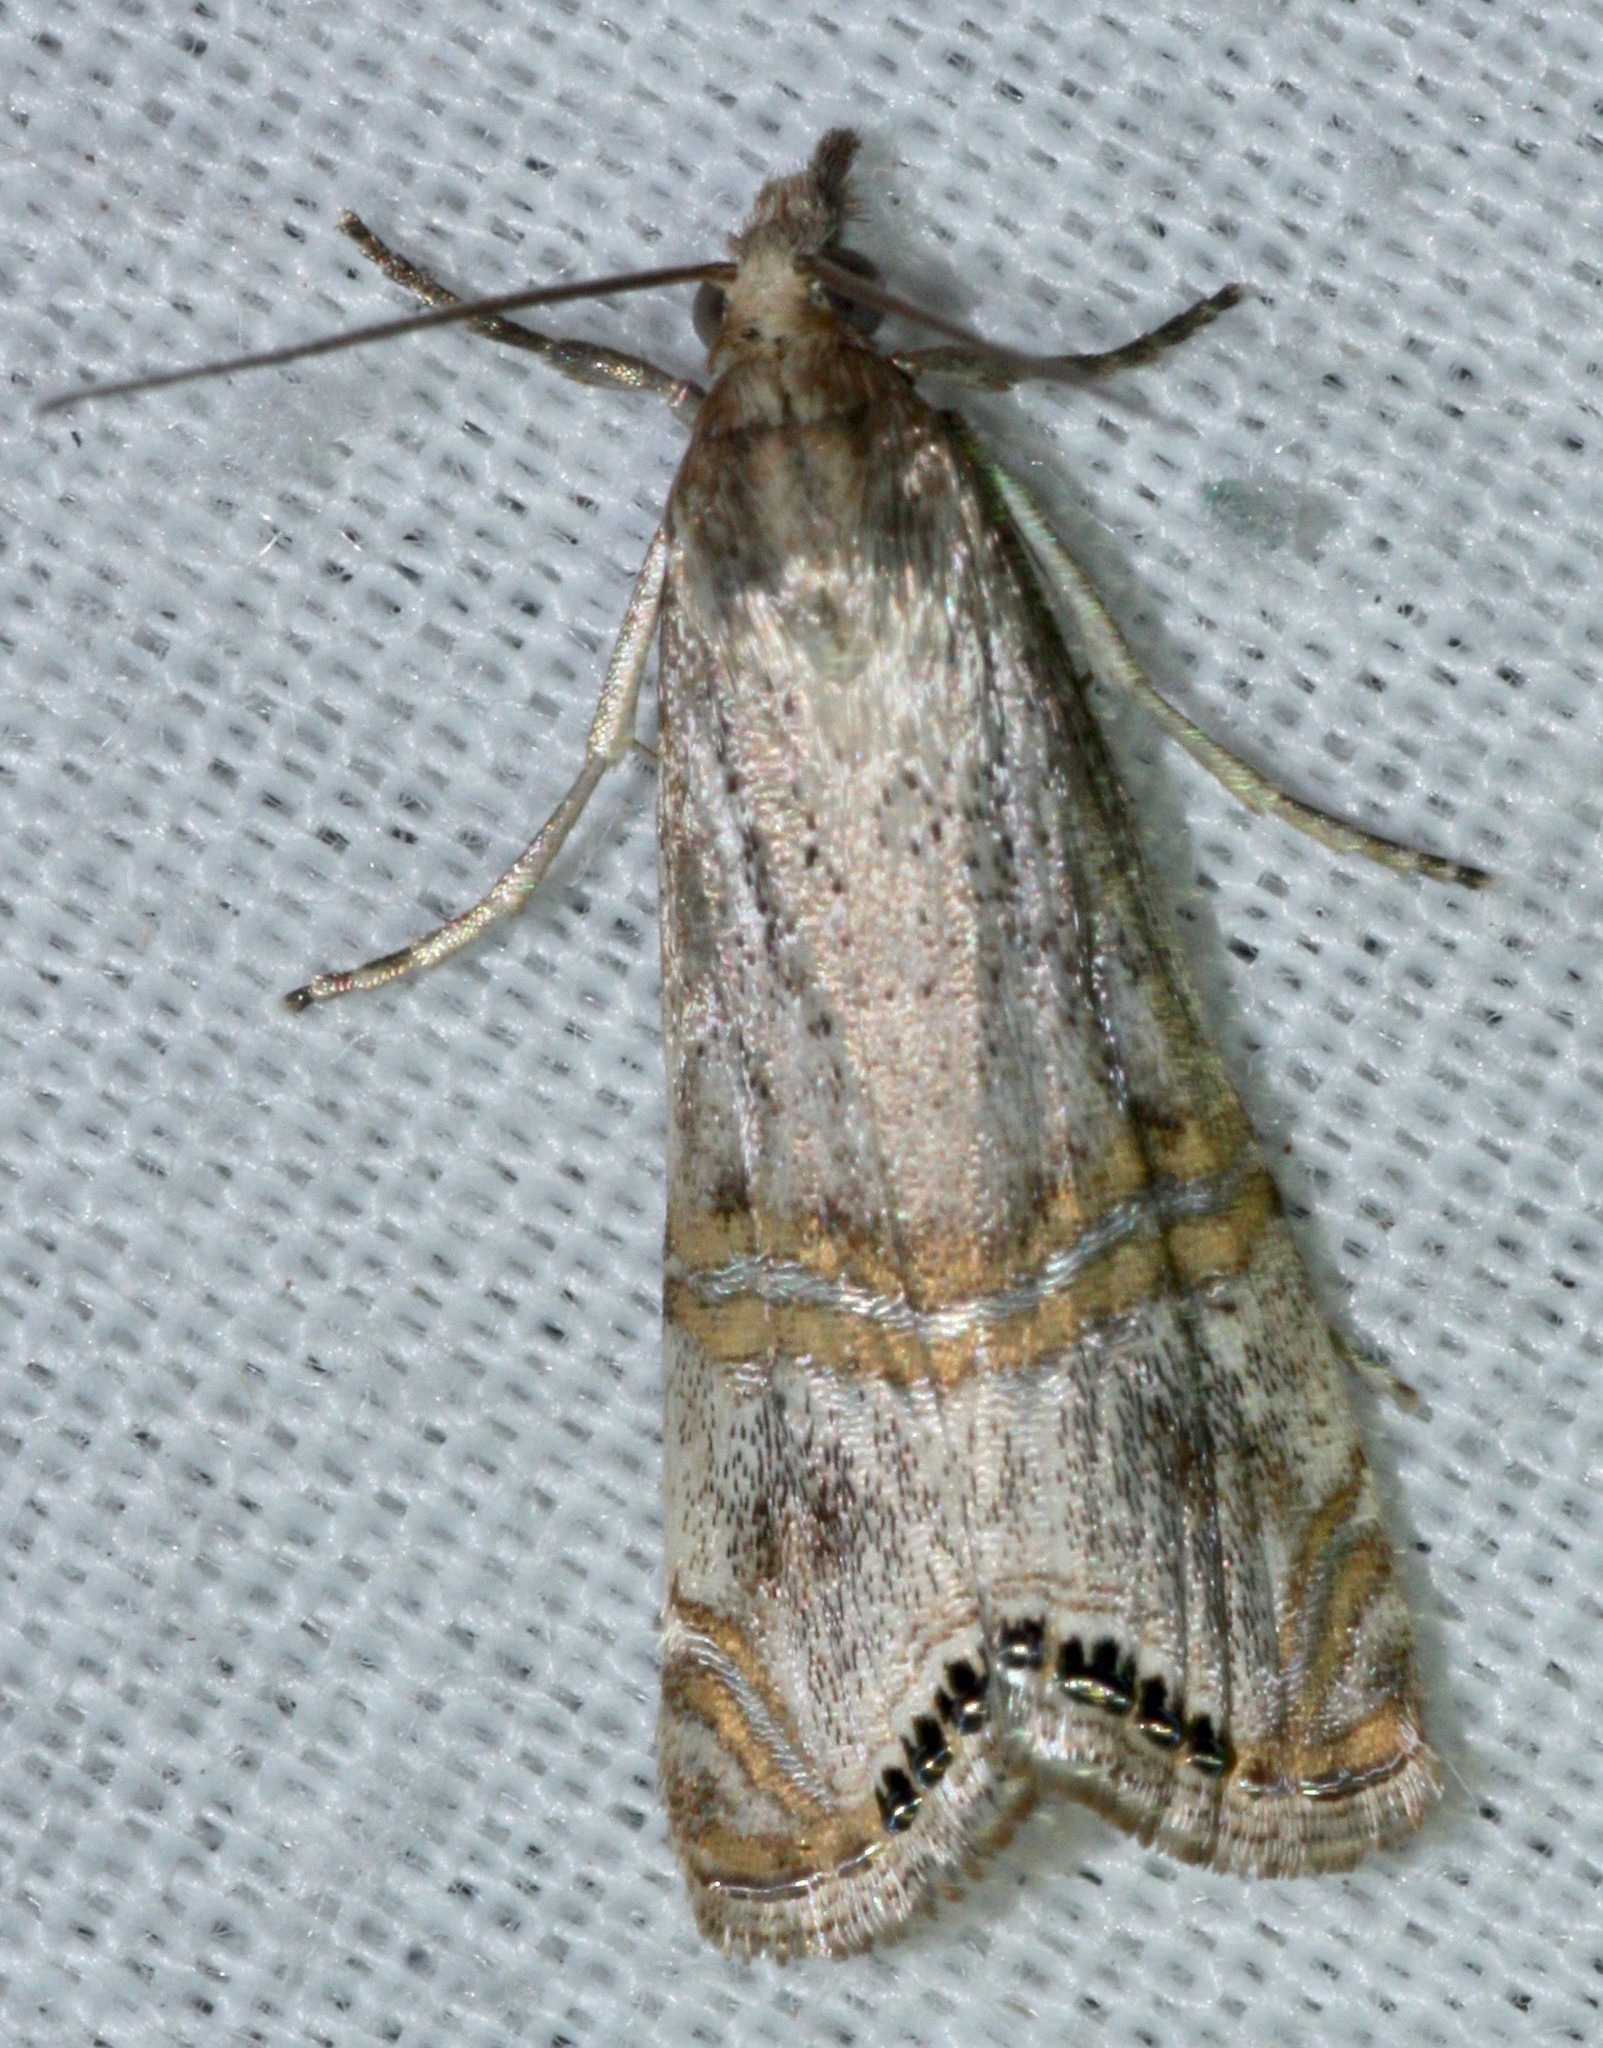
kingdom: Animalia
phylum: Arthropoda
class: Insecta
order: Lepidoptera
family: Crambidae
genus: Euchromius
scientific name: Euchromius ocellea
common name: Necklace veneer moth
